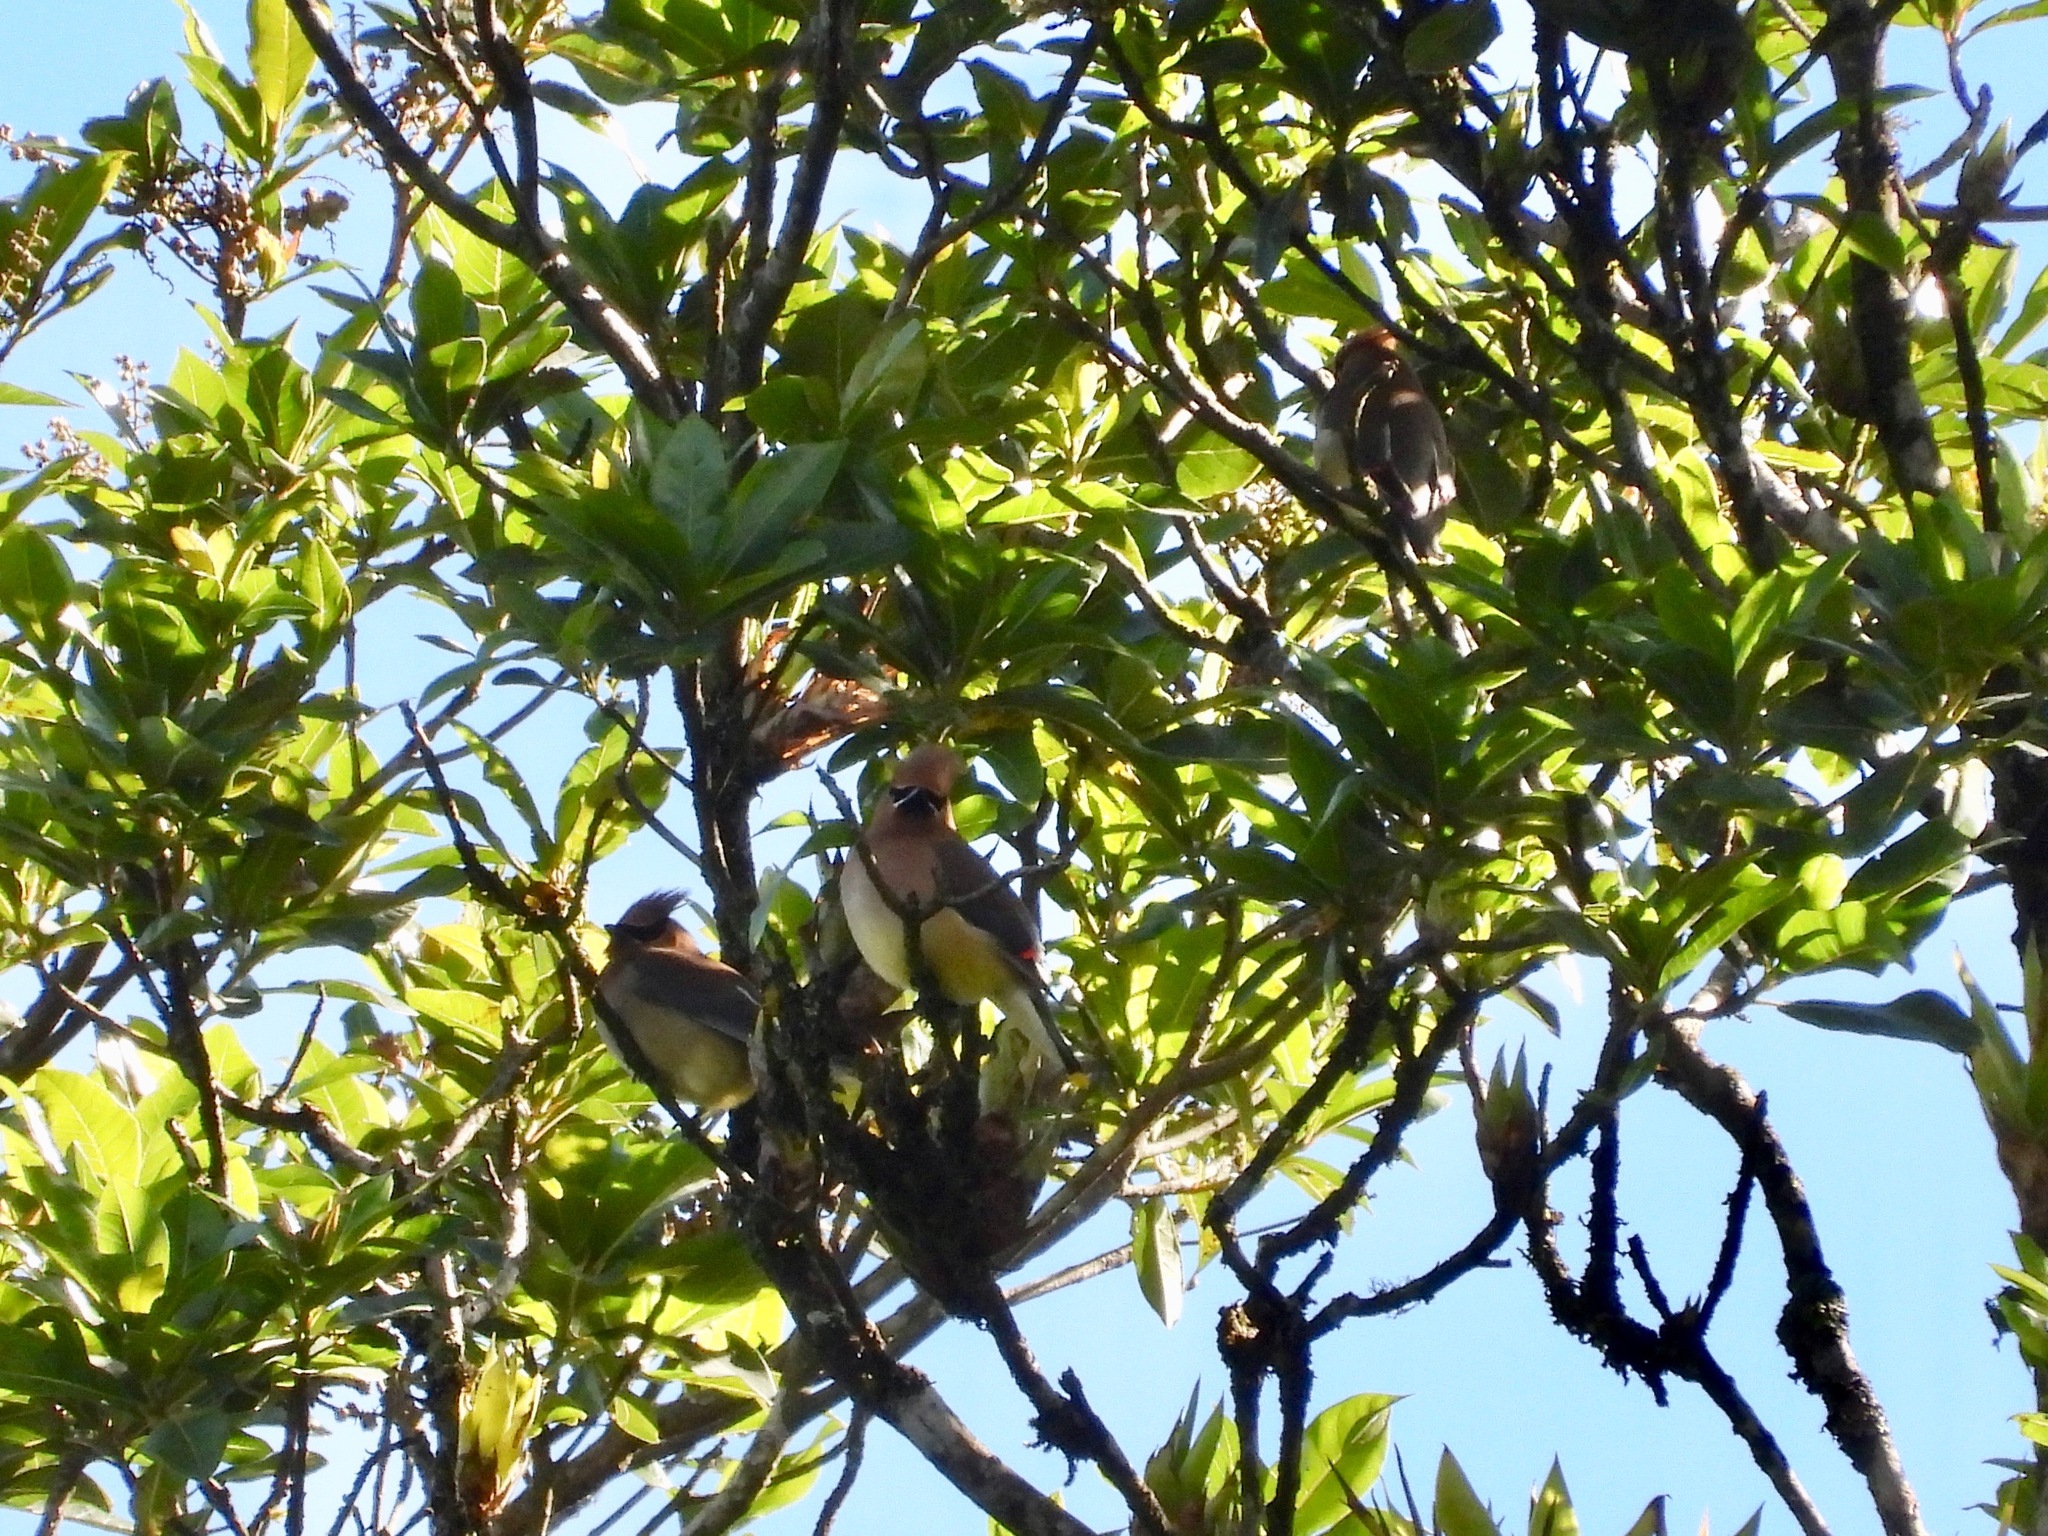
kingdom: Animalia
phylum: Chordata
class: Aves
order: Passeriformes
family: Bombycillidae
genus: Bombycilla
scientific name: Bombycilla cedrorum
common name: Cedar waxwing
